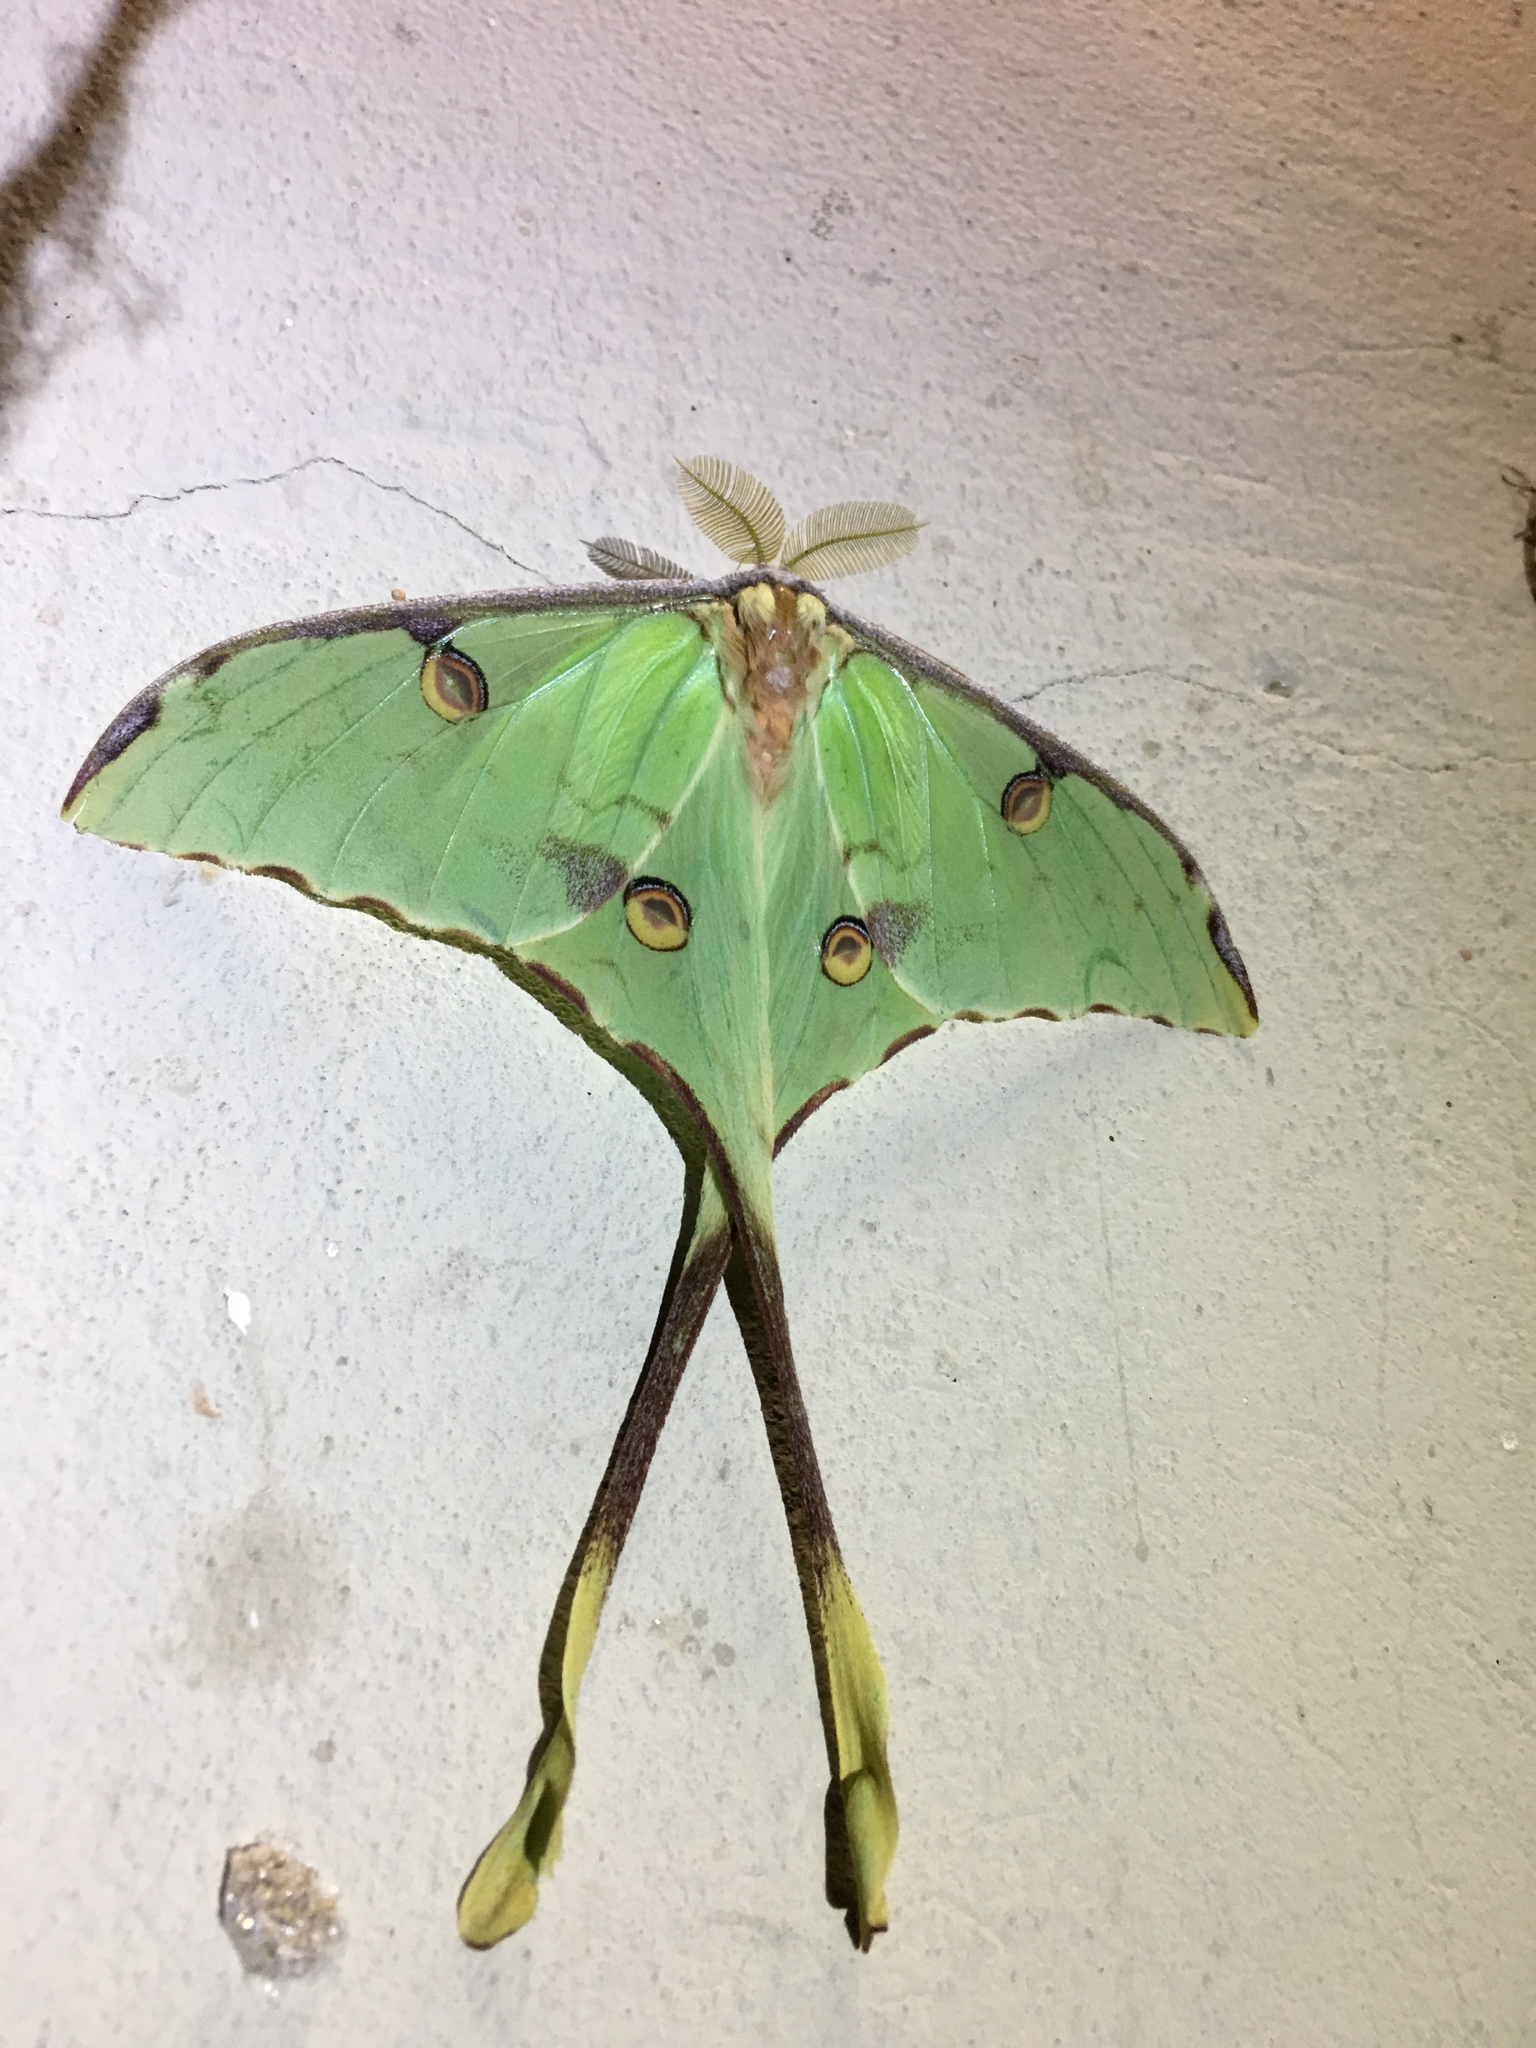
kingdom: Animalia
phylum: Arthropoda
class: Insecta
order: Lepidoptera
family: Saturniidae
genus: Argema
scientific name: Argema mimosae
